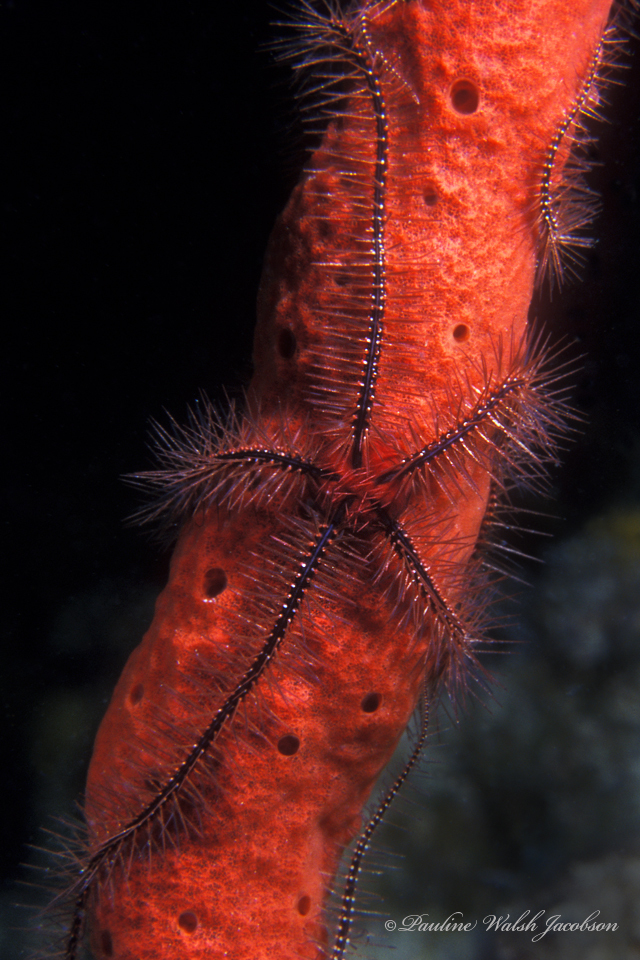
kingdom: Animalia
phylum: Echinodermata
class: Ophiuroidea
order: Amphilepidida
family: Ophiotrichidae
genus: Ophiothrix
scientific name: Ophiothrix suensonii
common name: Sponge brittle star
